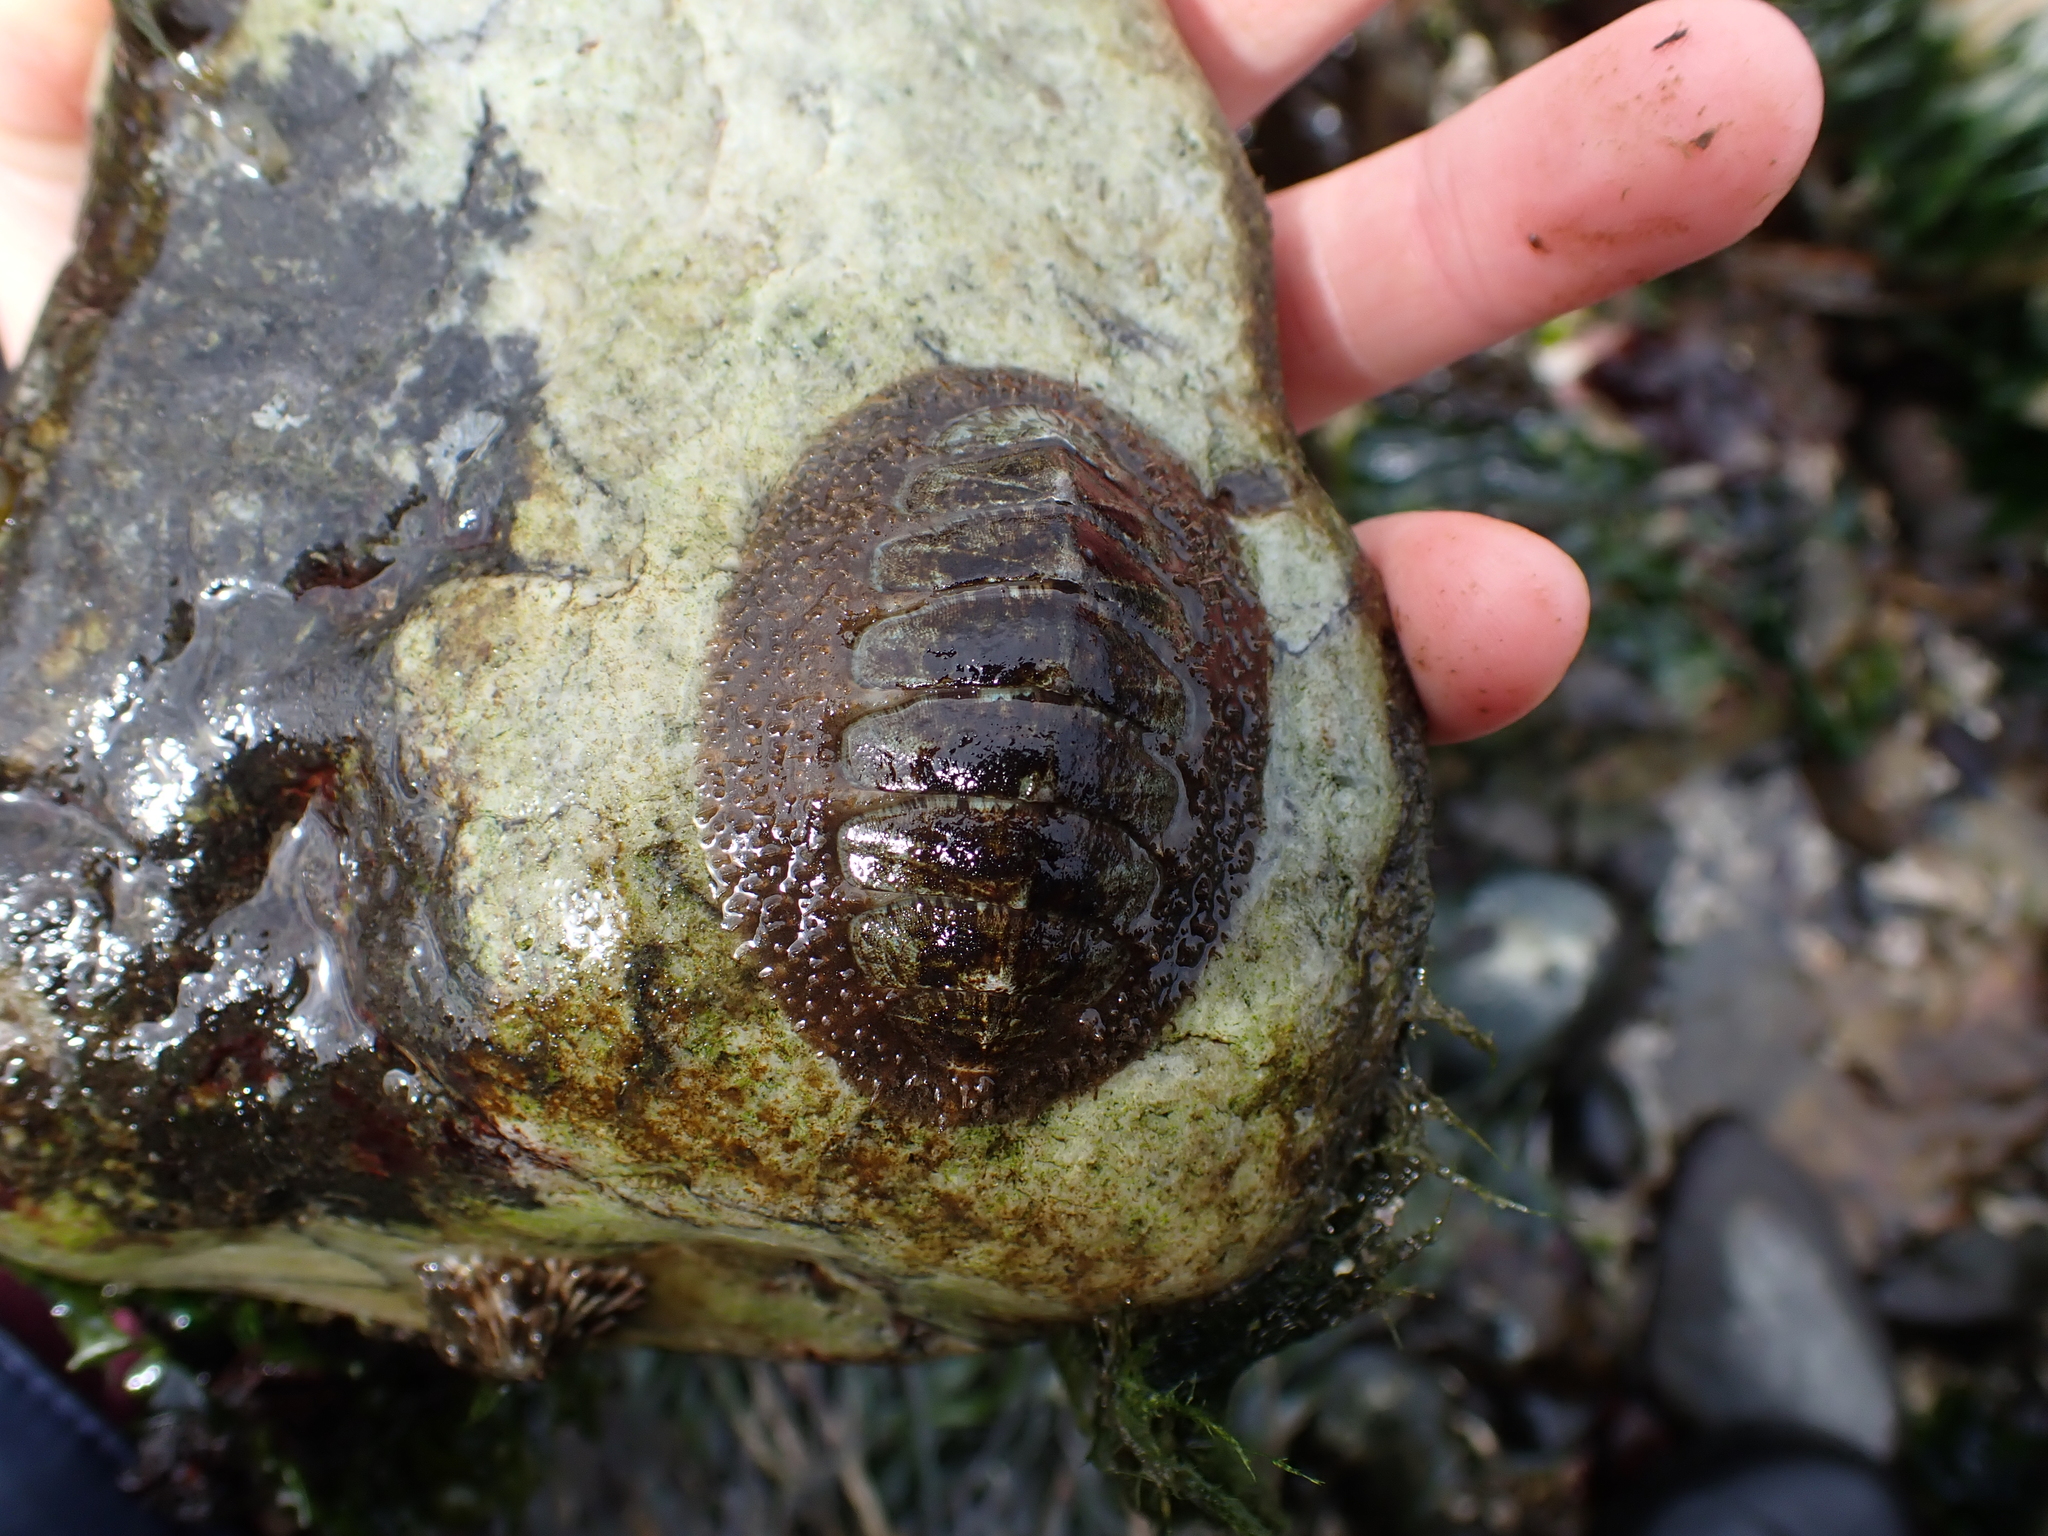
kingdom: Animalia
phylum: Mollusca
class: Polyplacophora
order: Chitonida
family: Mopaliidae
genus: Mopalia
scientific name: Mopalia lignosa
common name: Woody chiton
